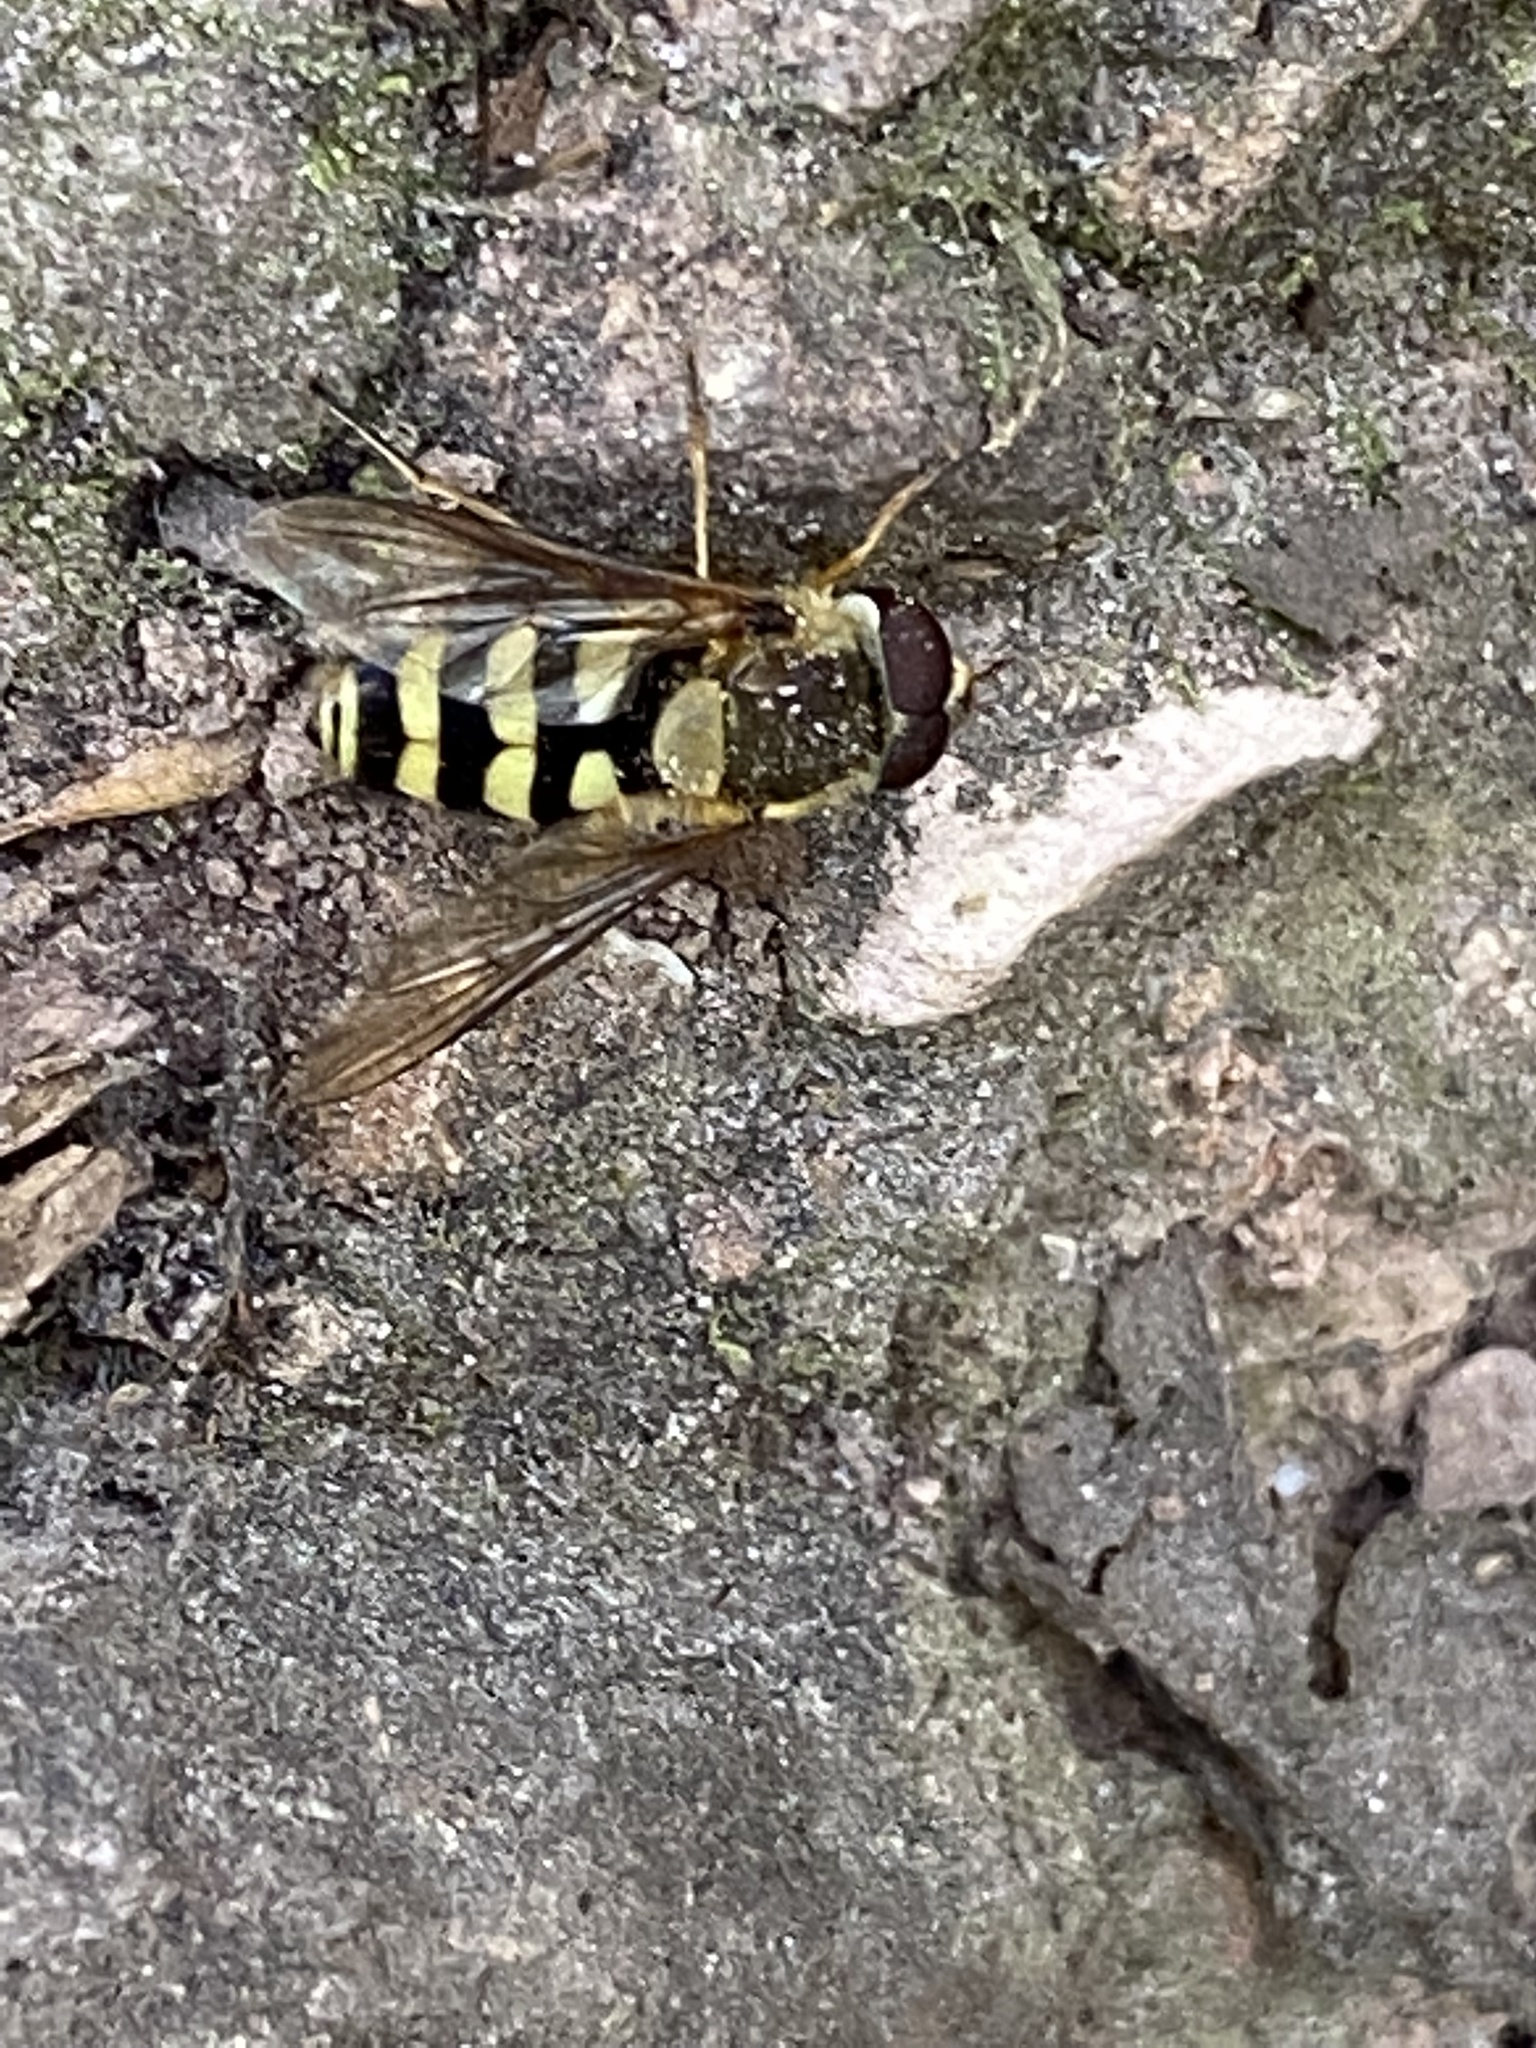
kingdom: Animalia
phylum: Arthropoda
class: Insecta
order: Diptera
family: Syrphidae
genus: Syrphus
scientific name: Syrphus
